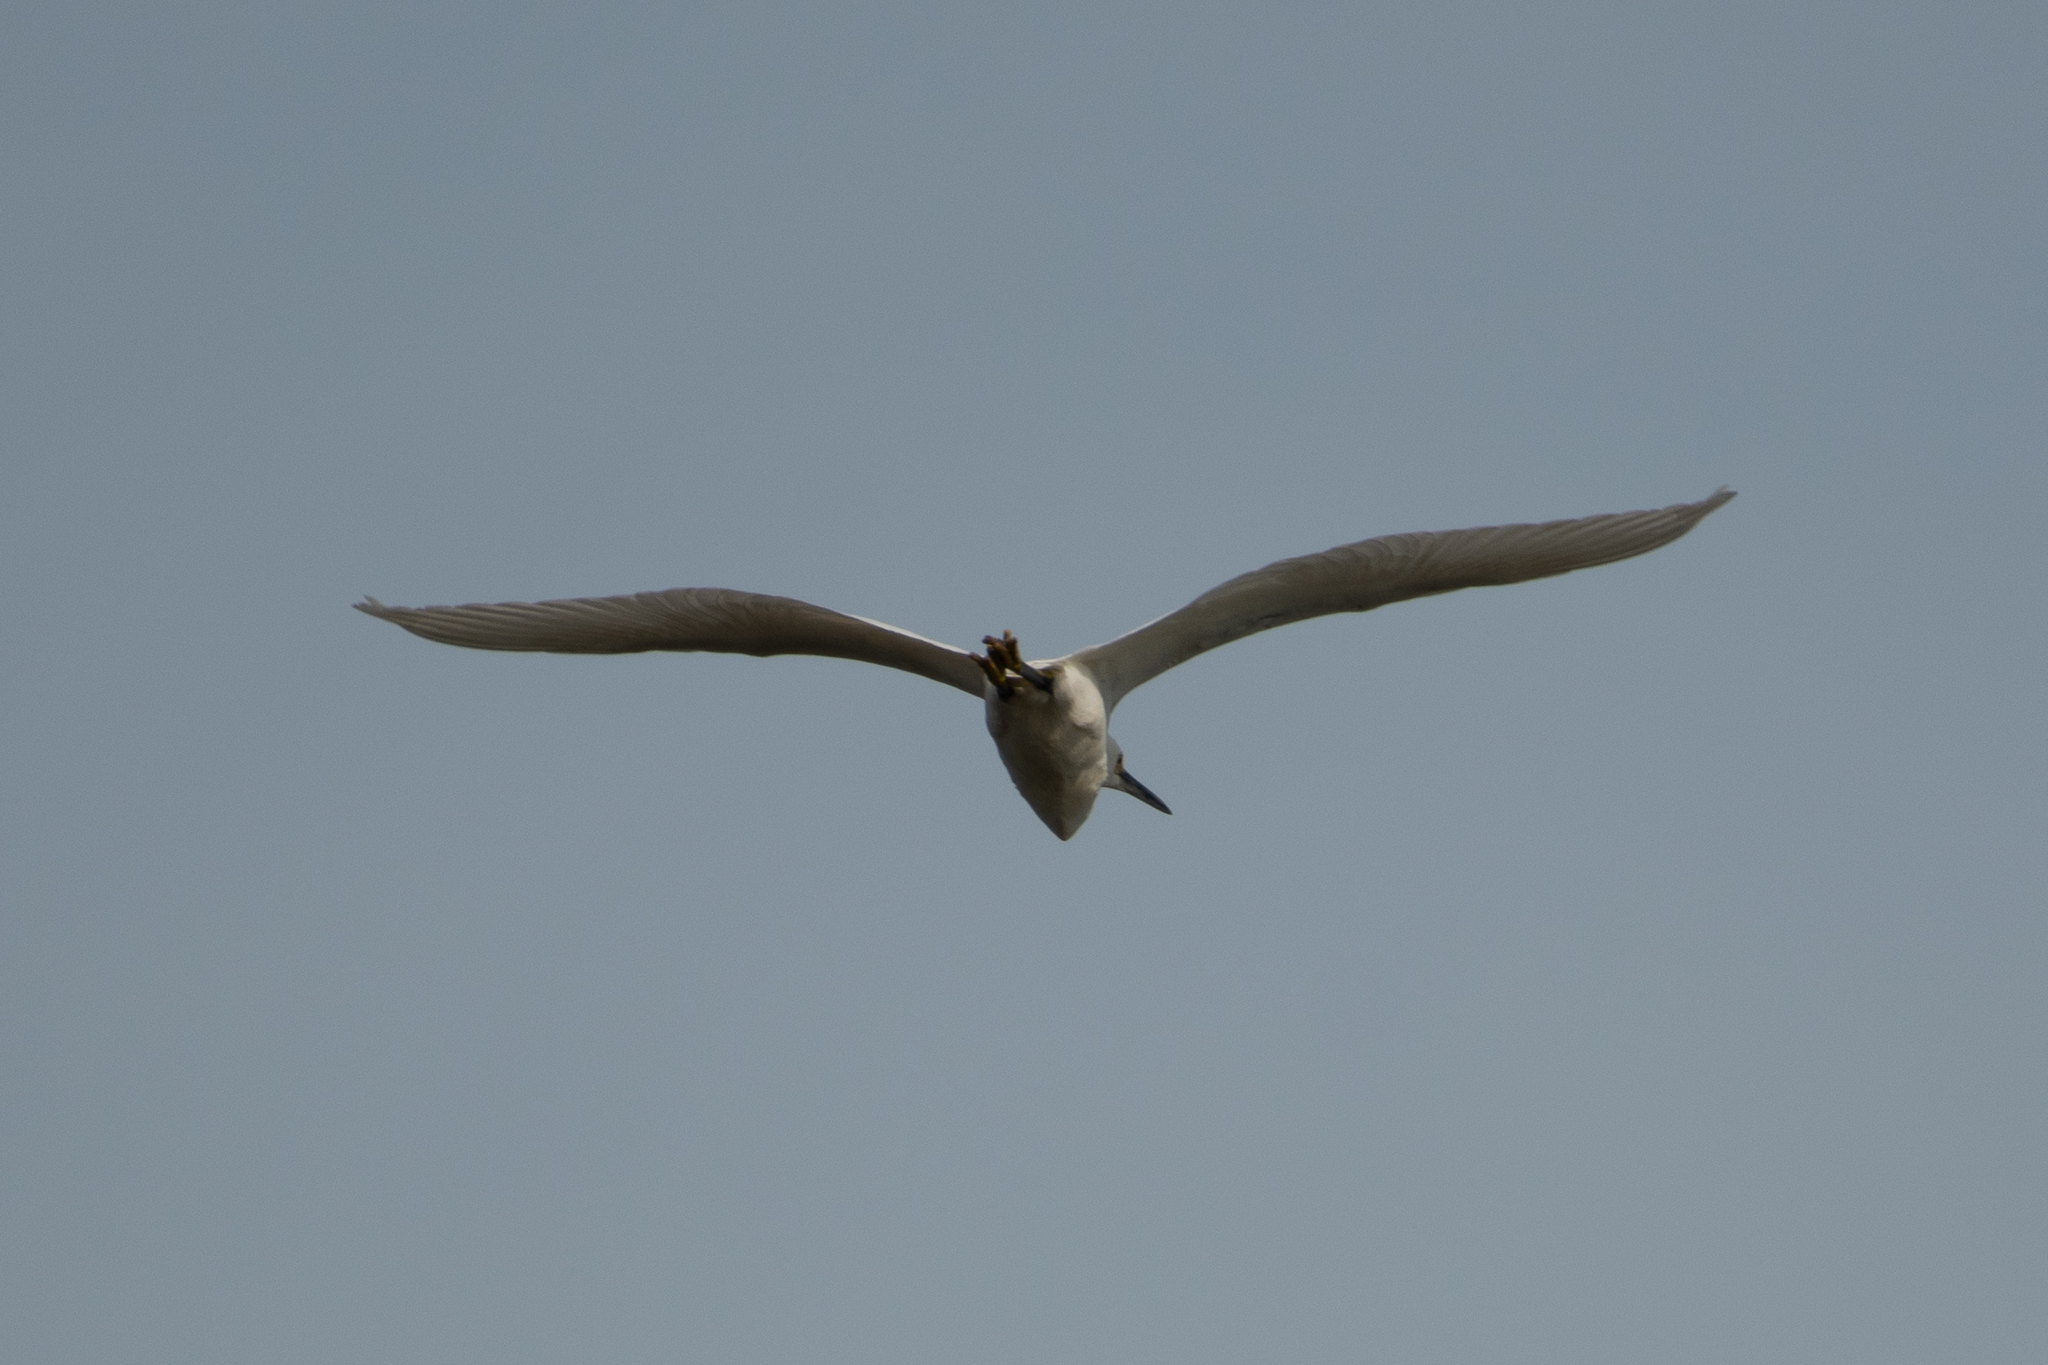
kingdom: Animalia
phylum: Chordata
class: Aves
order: Pelecaniformes
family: Ardeidae
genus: Egretta
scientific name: Egretta thula
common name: Snowy egret
